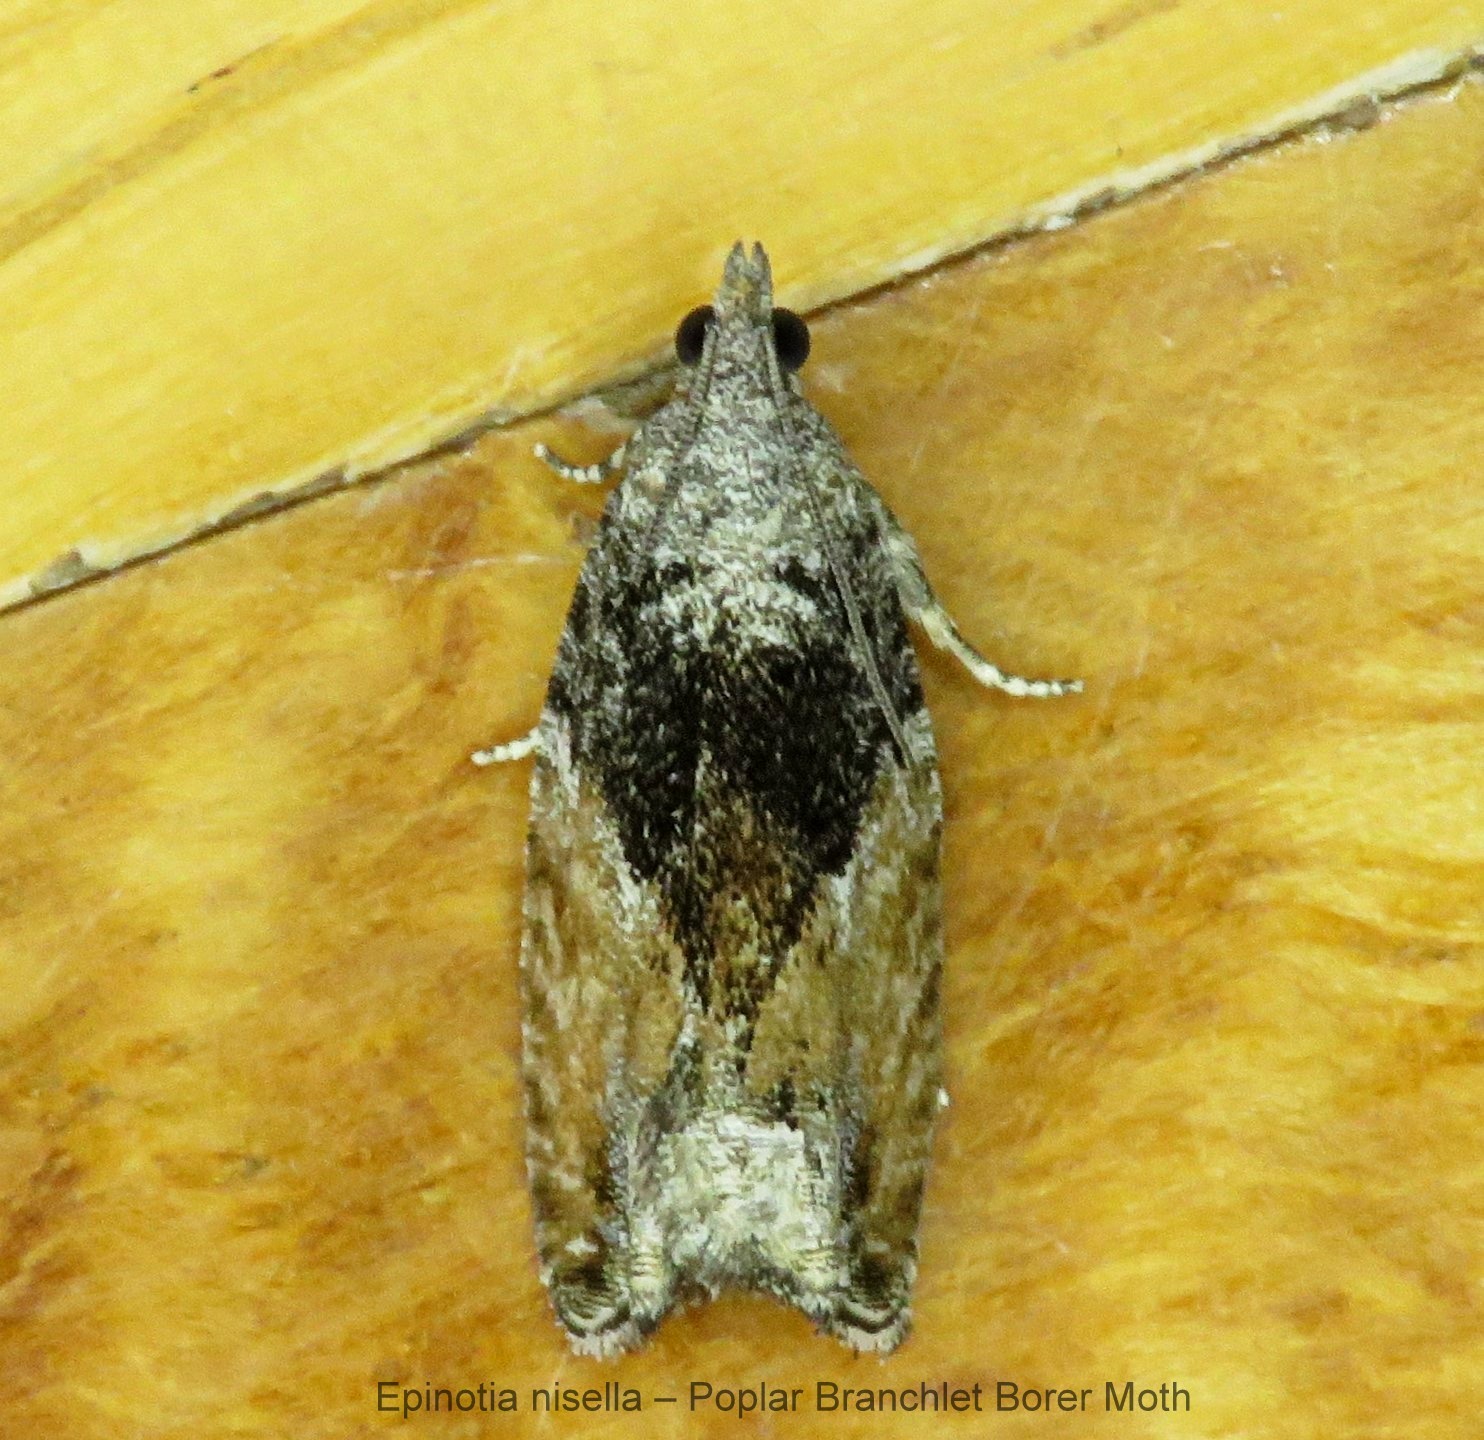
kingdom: Animalia
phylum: Arthropoda
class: Insecta
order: Lepidoptera
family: Tortricidae
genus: Epinotia
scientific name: Epinotia nisella
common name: Grey poplar bell
